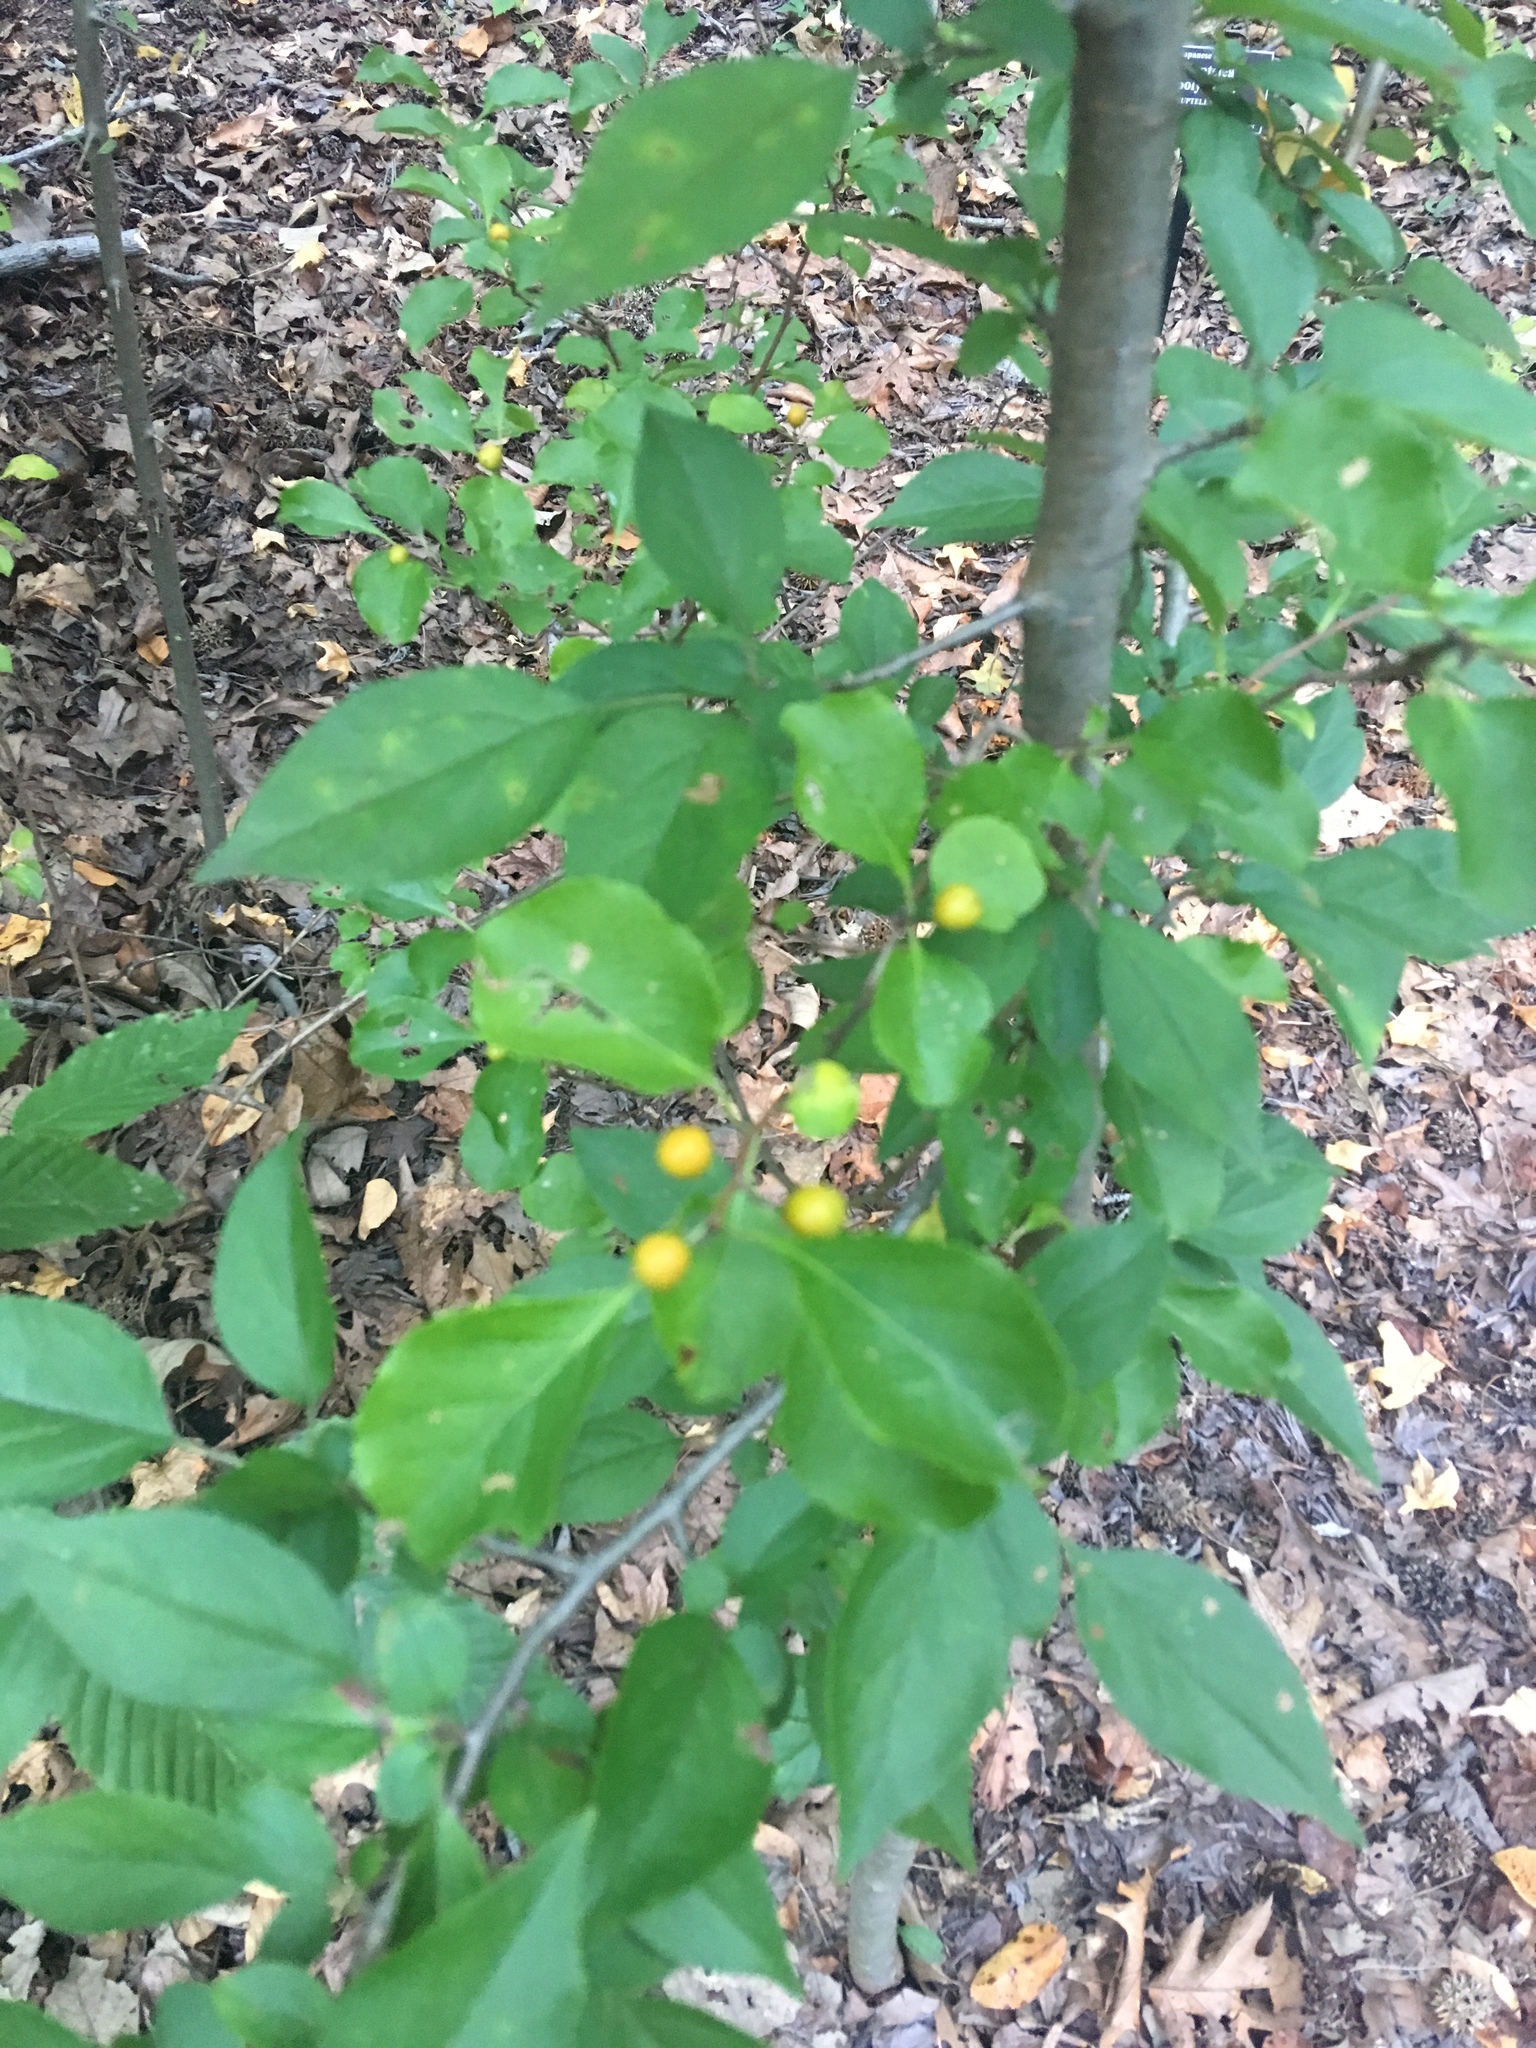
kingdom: Plantae
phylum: Tracheophyta
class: Magnoliopsida
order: Rosales
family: Rosaceae
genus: Malus
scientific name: Malus hupehensis
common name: Chinese crab apple
